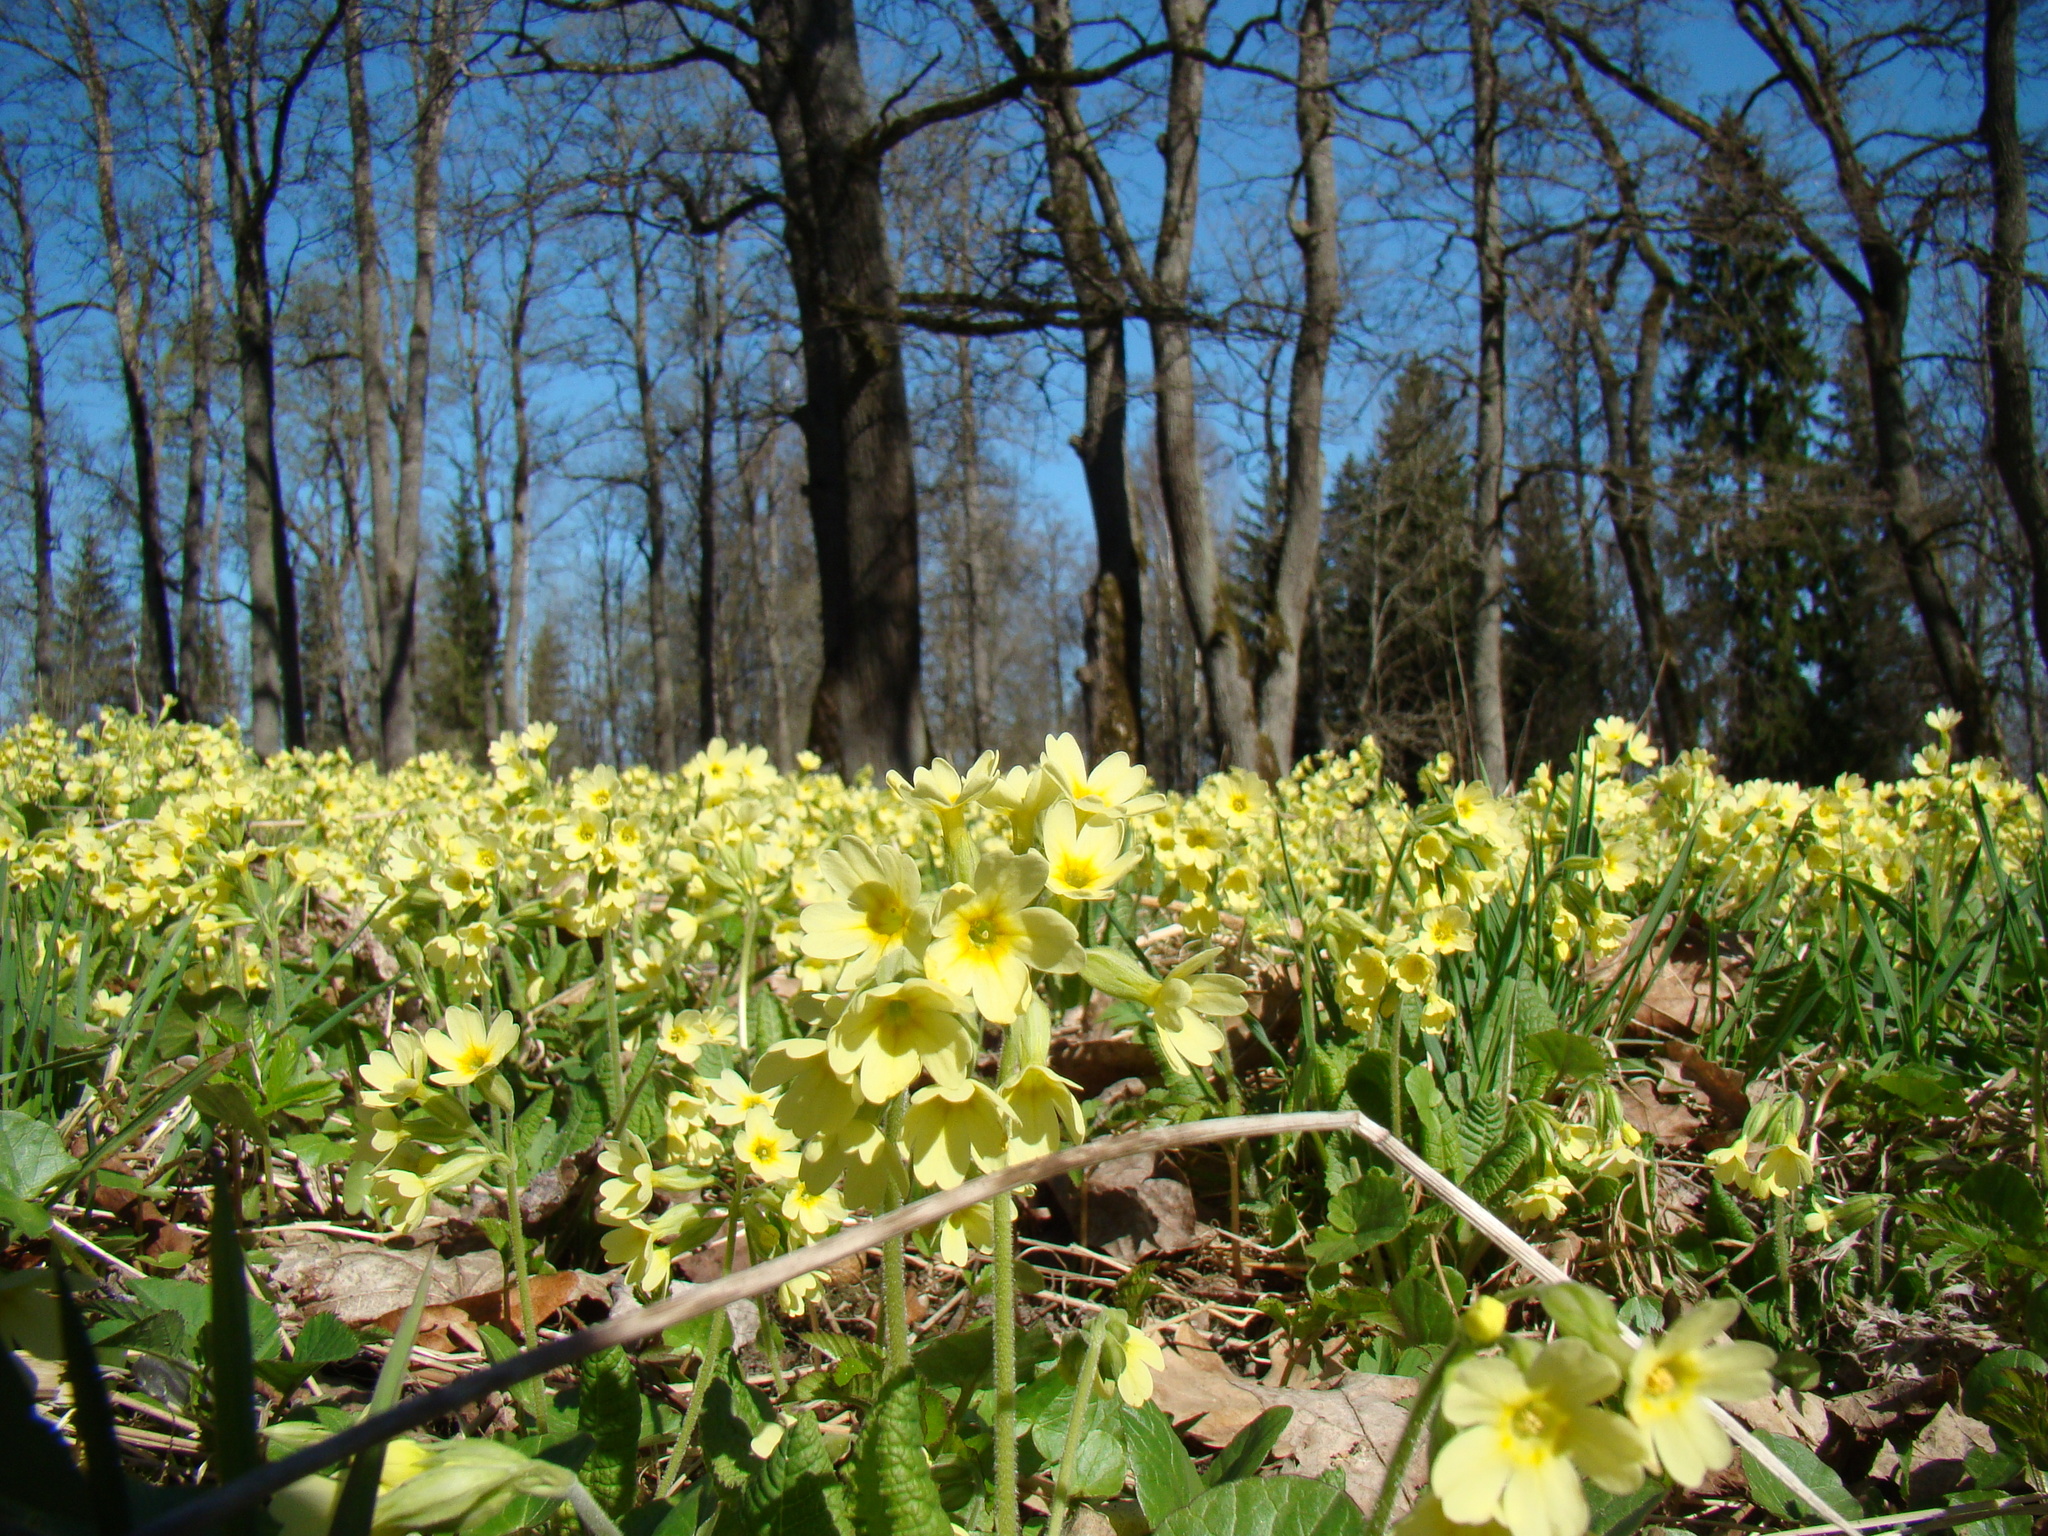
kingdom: Plantae
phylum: Tracheophyta
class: Magnoliopsida
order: Ericales
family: Primulaceae
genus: Primula
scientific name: Primula elatior
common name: Oxlip
